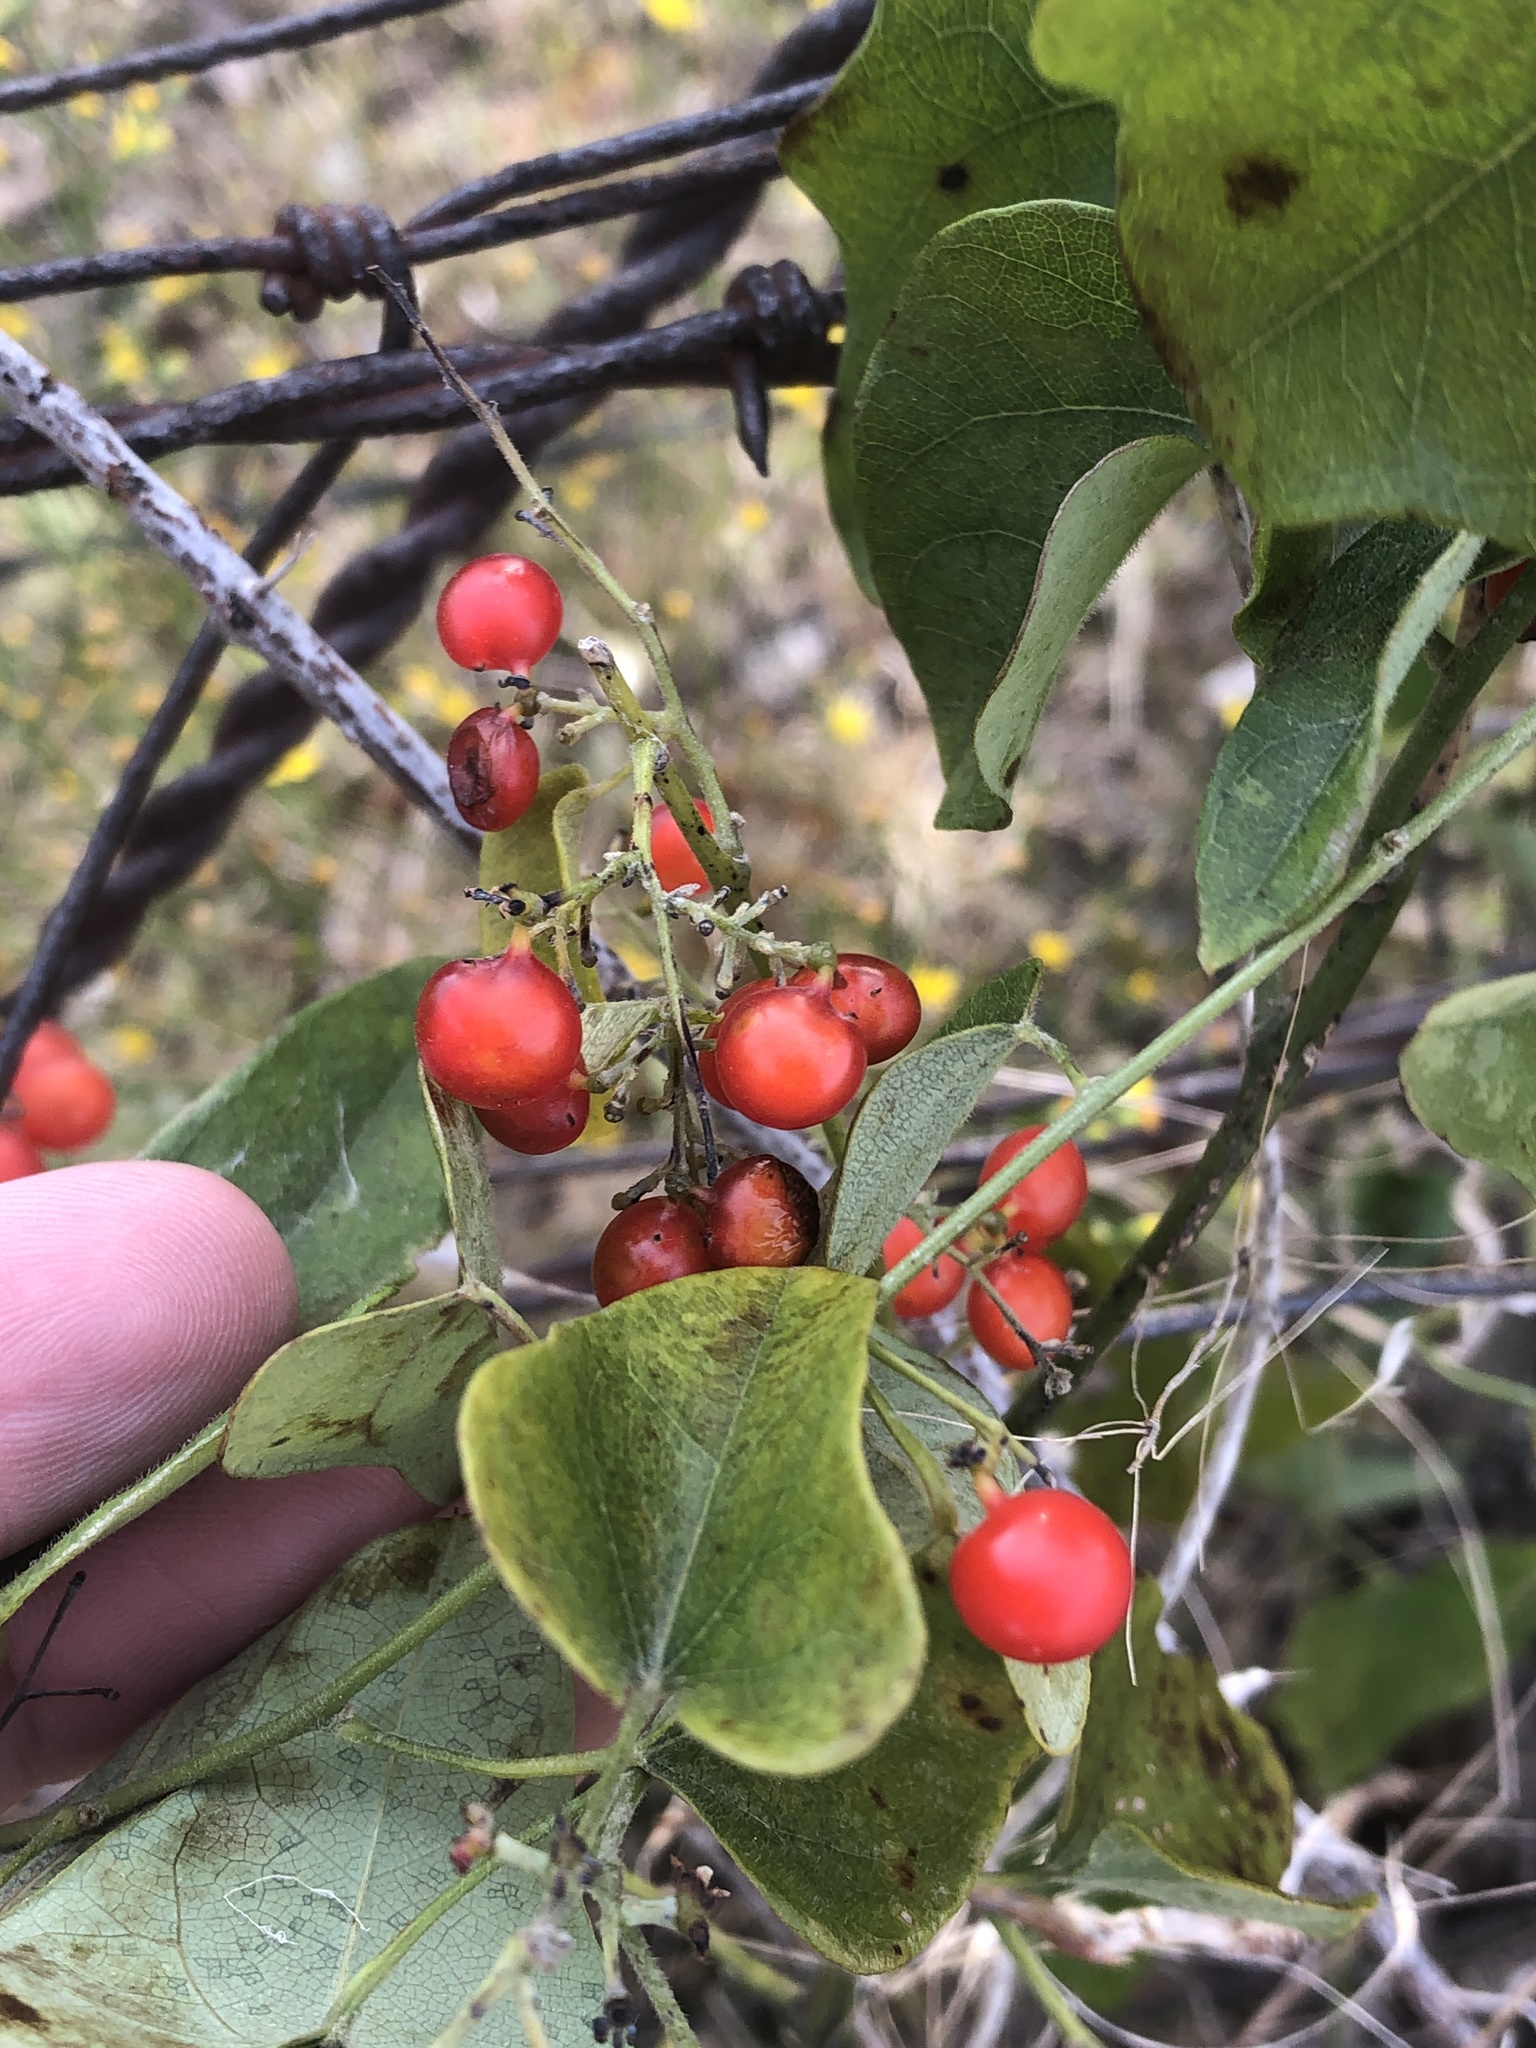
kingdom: Plantae
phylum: Tracheophyta
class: Magnoliopsida
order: Ranunculales
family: Menispermaceae
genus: Cocculus
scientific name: Cocculus carolinus
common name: Carolina moonseed
